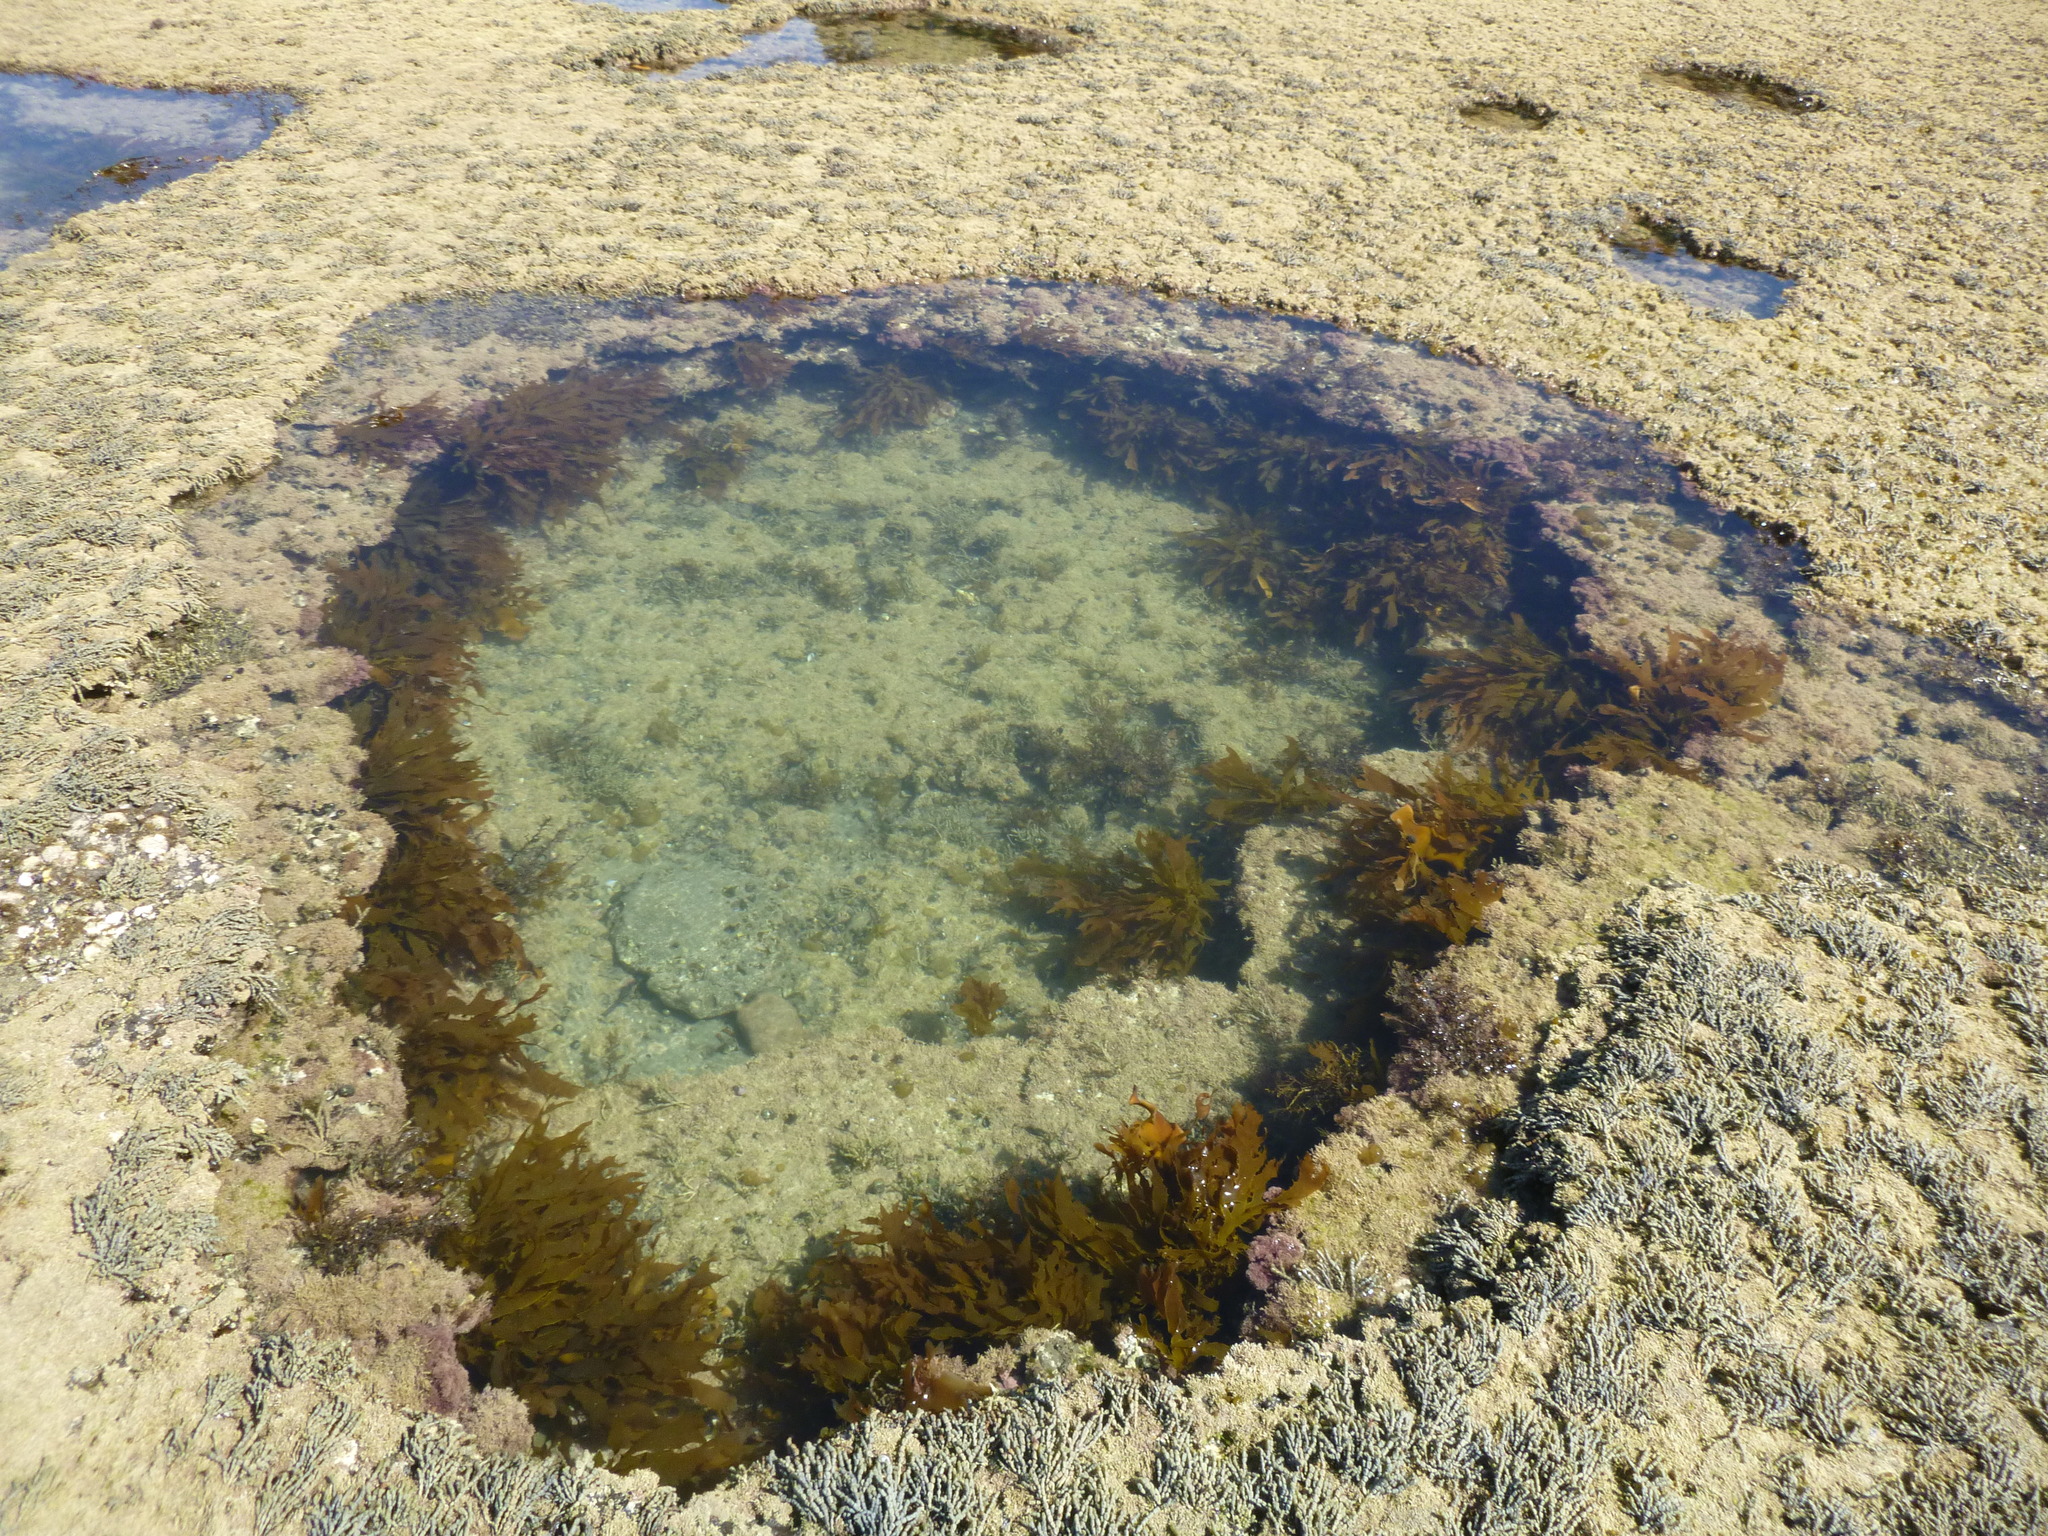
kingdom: Chromista
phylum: Ochrophyta
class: Phaeophyceae
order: Laminariales
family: Lessoniaceae
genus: Ecklonia
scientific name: Ecklonia radiata
